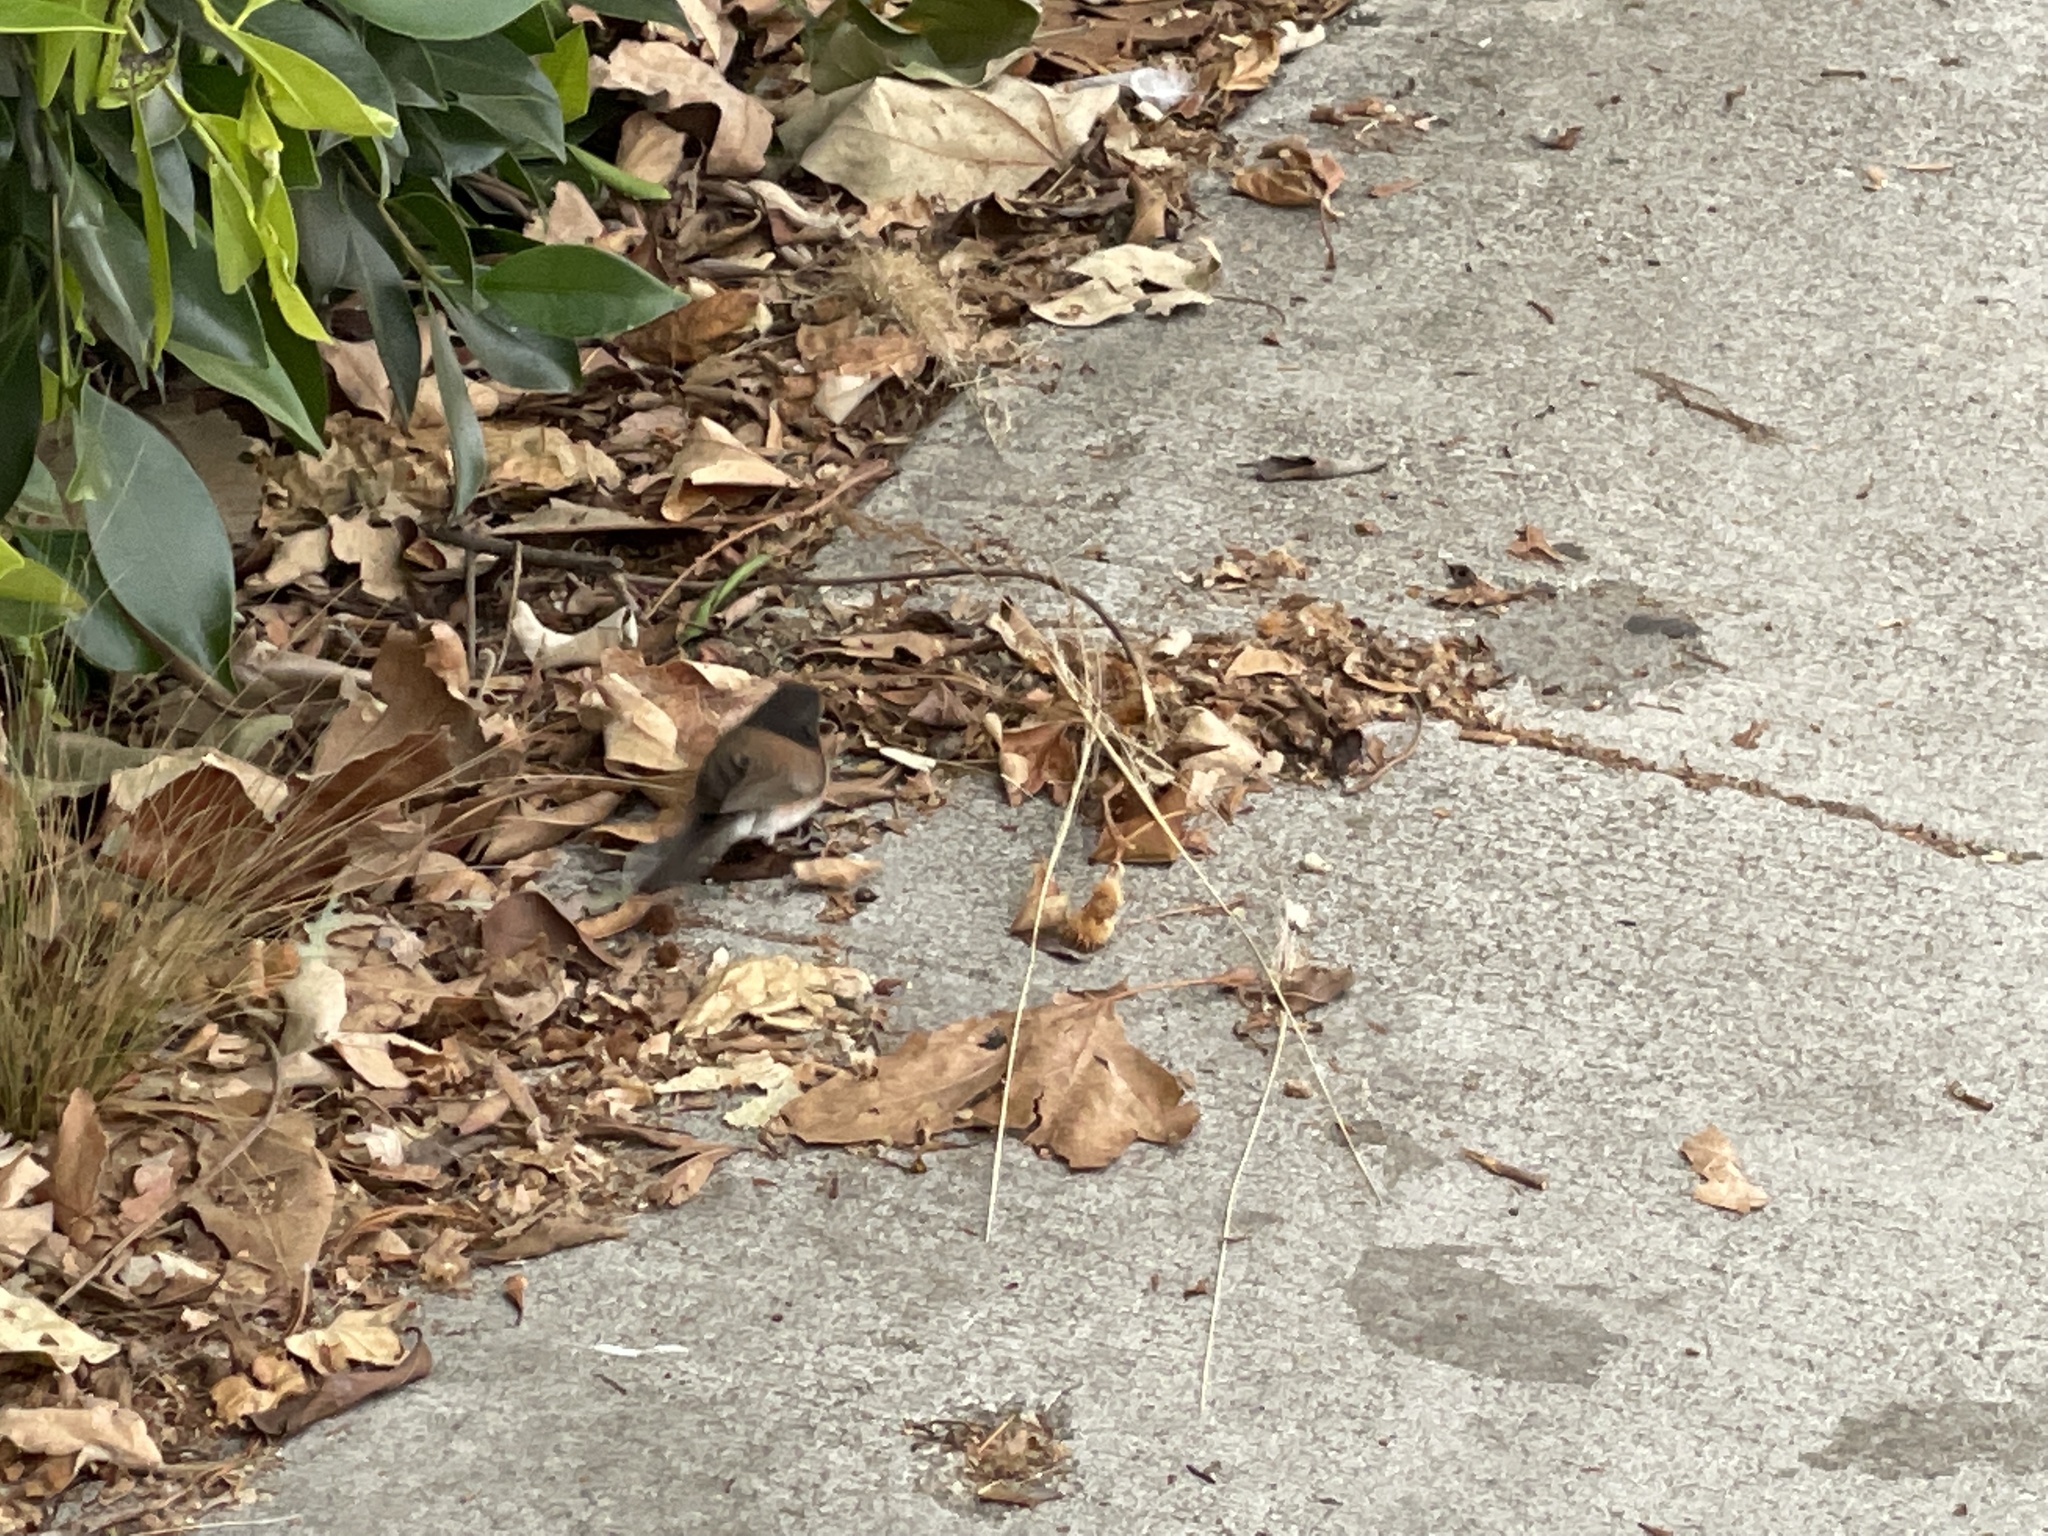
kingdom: Animalia
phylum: Chordata
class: Aves
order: Passeriformes
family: Passerellidae
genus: Junco
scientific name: Junco hyemalis
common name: Dark-eyed junco
